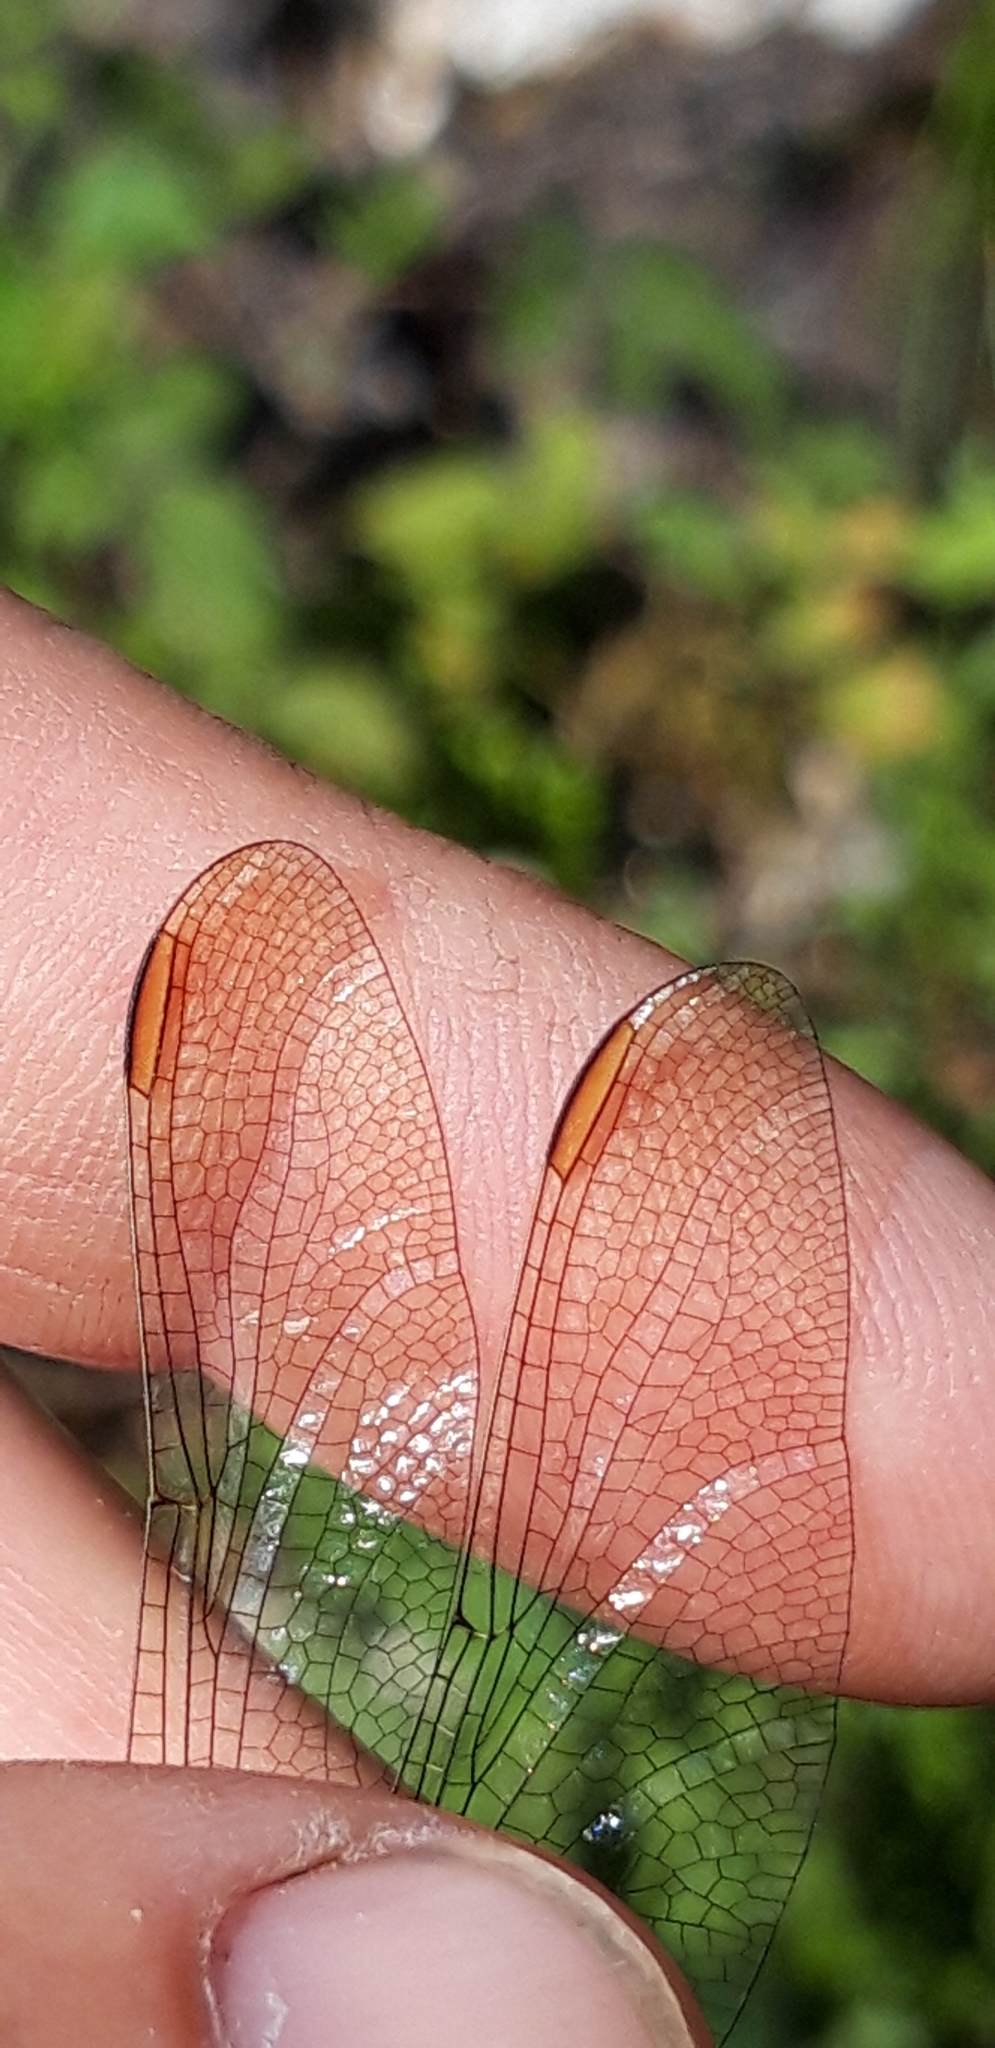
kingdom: Animalia
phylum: Arthropoda
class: Insecta
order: Odonata
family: Libellulidae
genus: Orthetrum
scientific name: Orthetrum coerulescens
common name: Keeled skimmer
